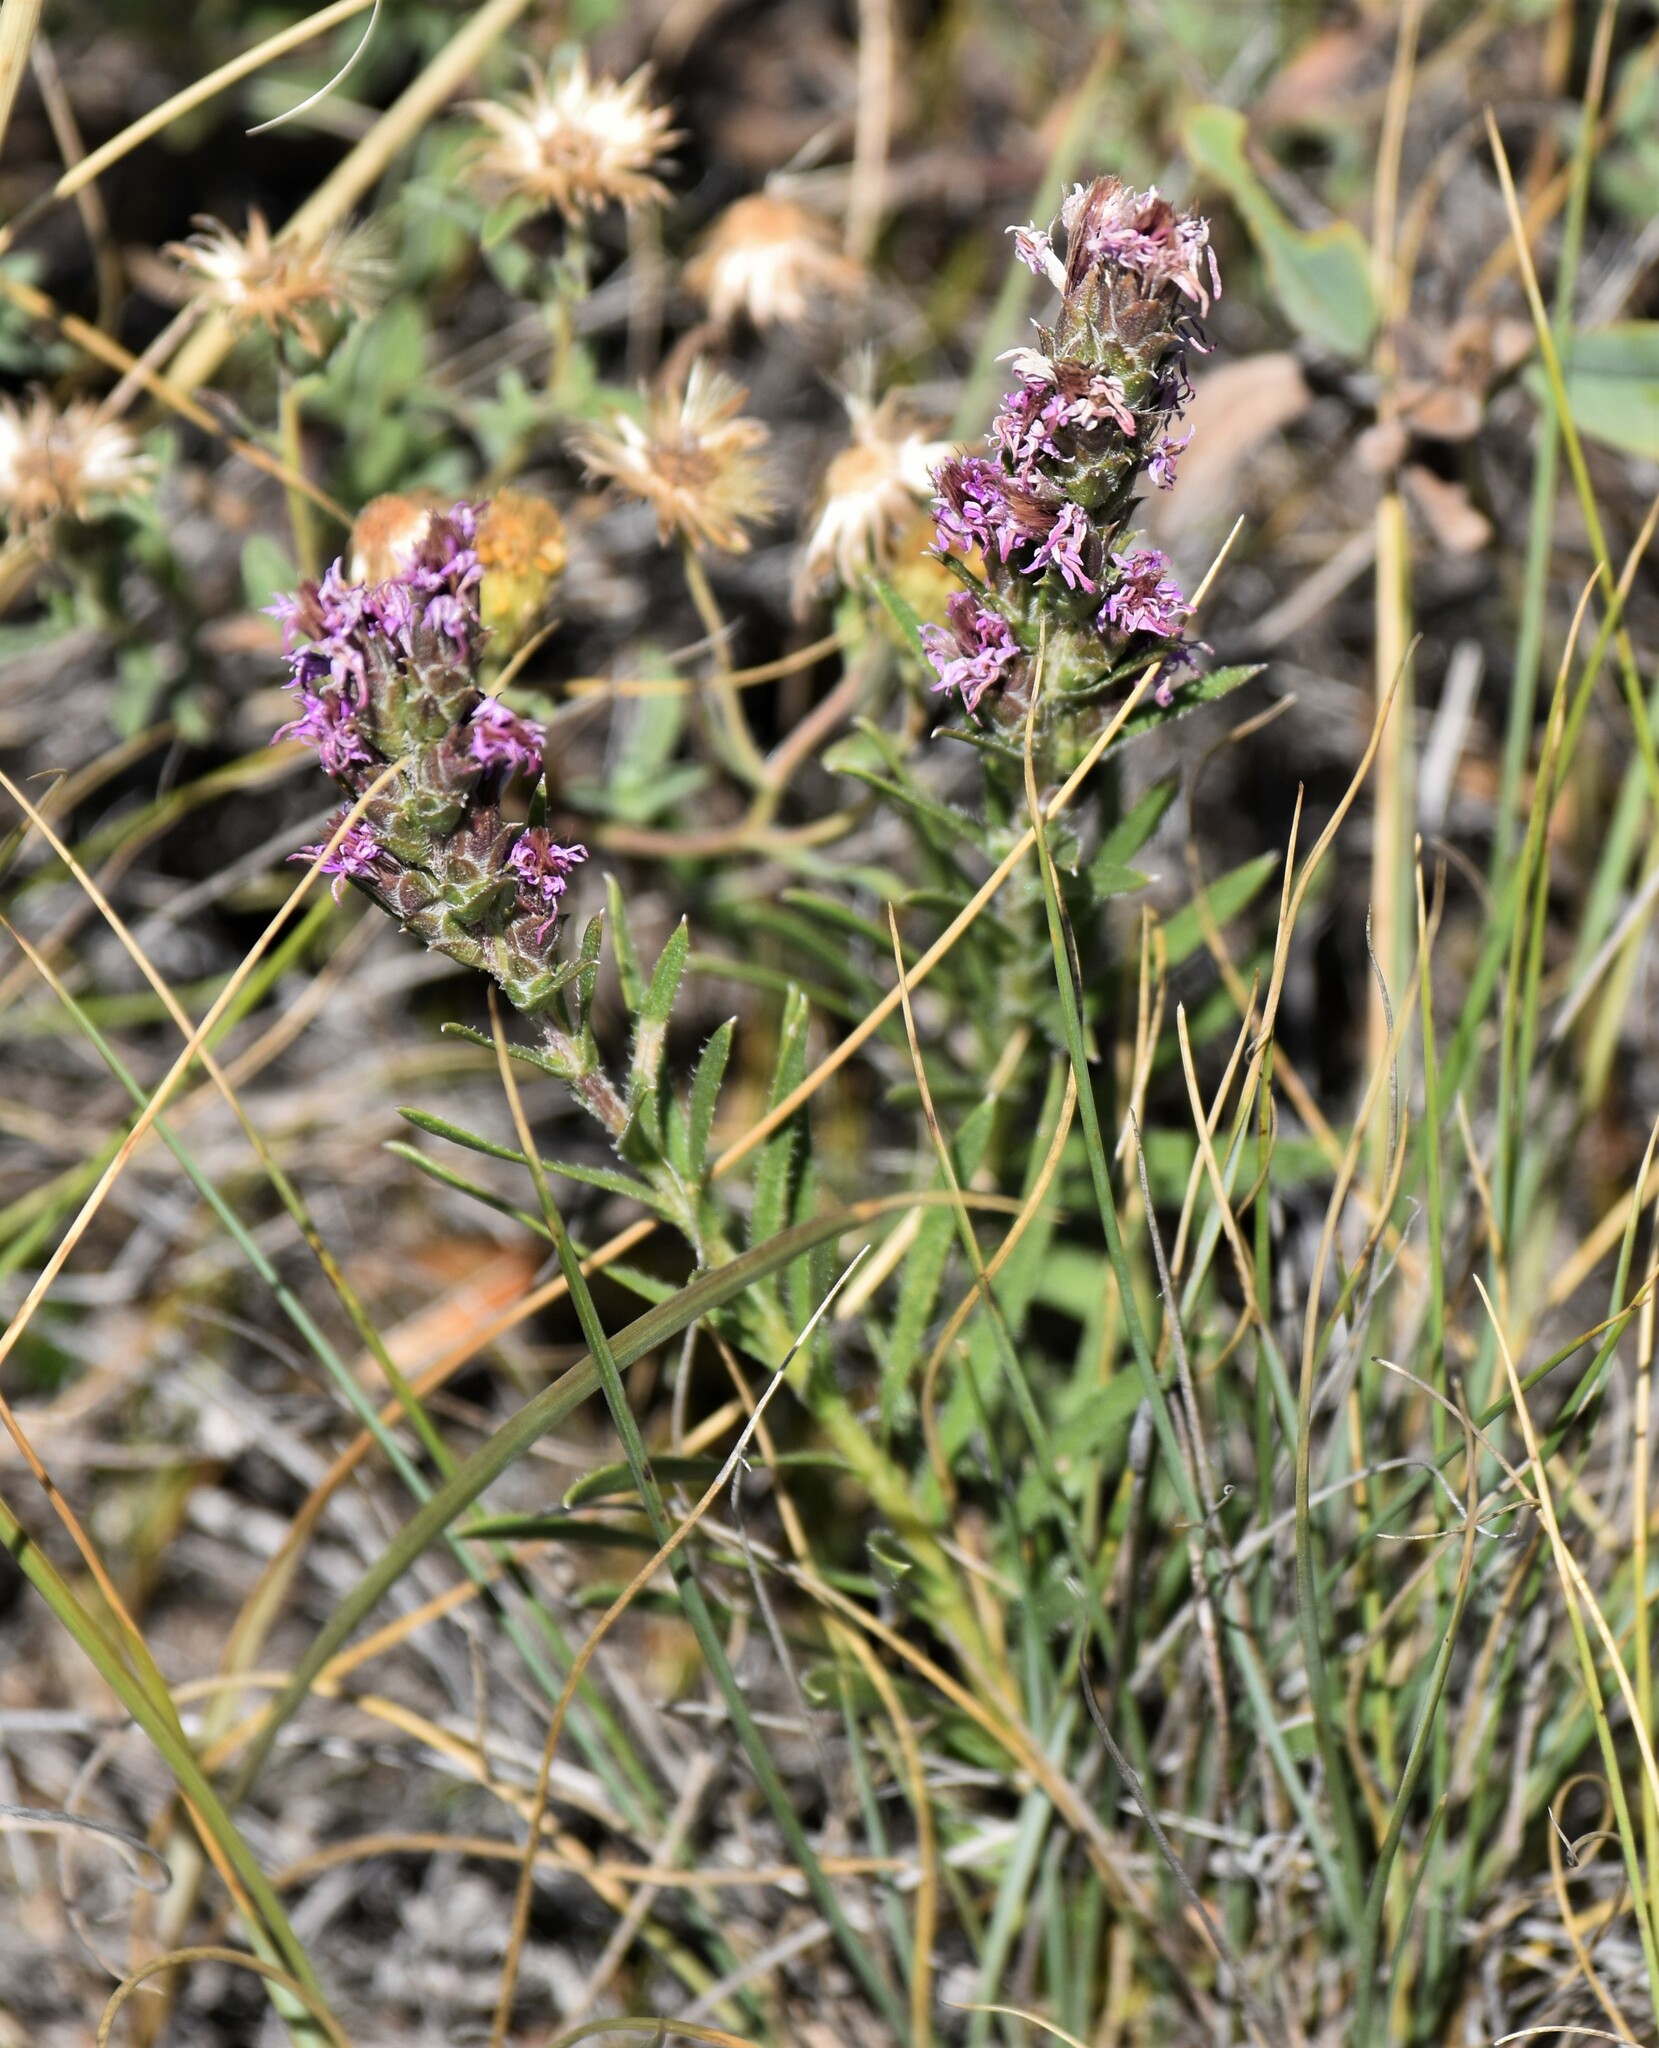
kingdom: Plantae
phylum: Tracheophyta
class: Magnoliopsida
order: Asterales
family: Asteraceae
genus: Liatris
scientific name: Liatris punctata
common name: Dotted gayfeather
